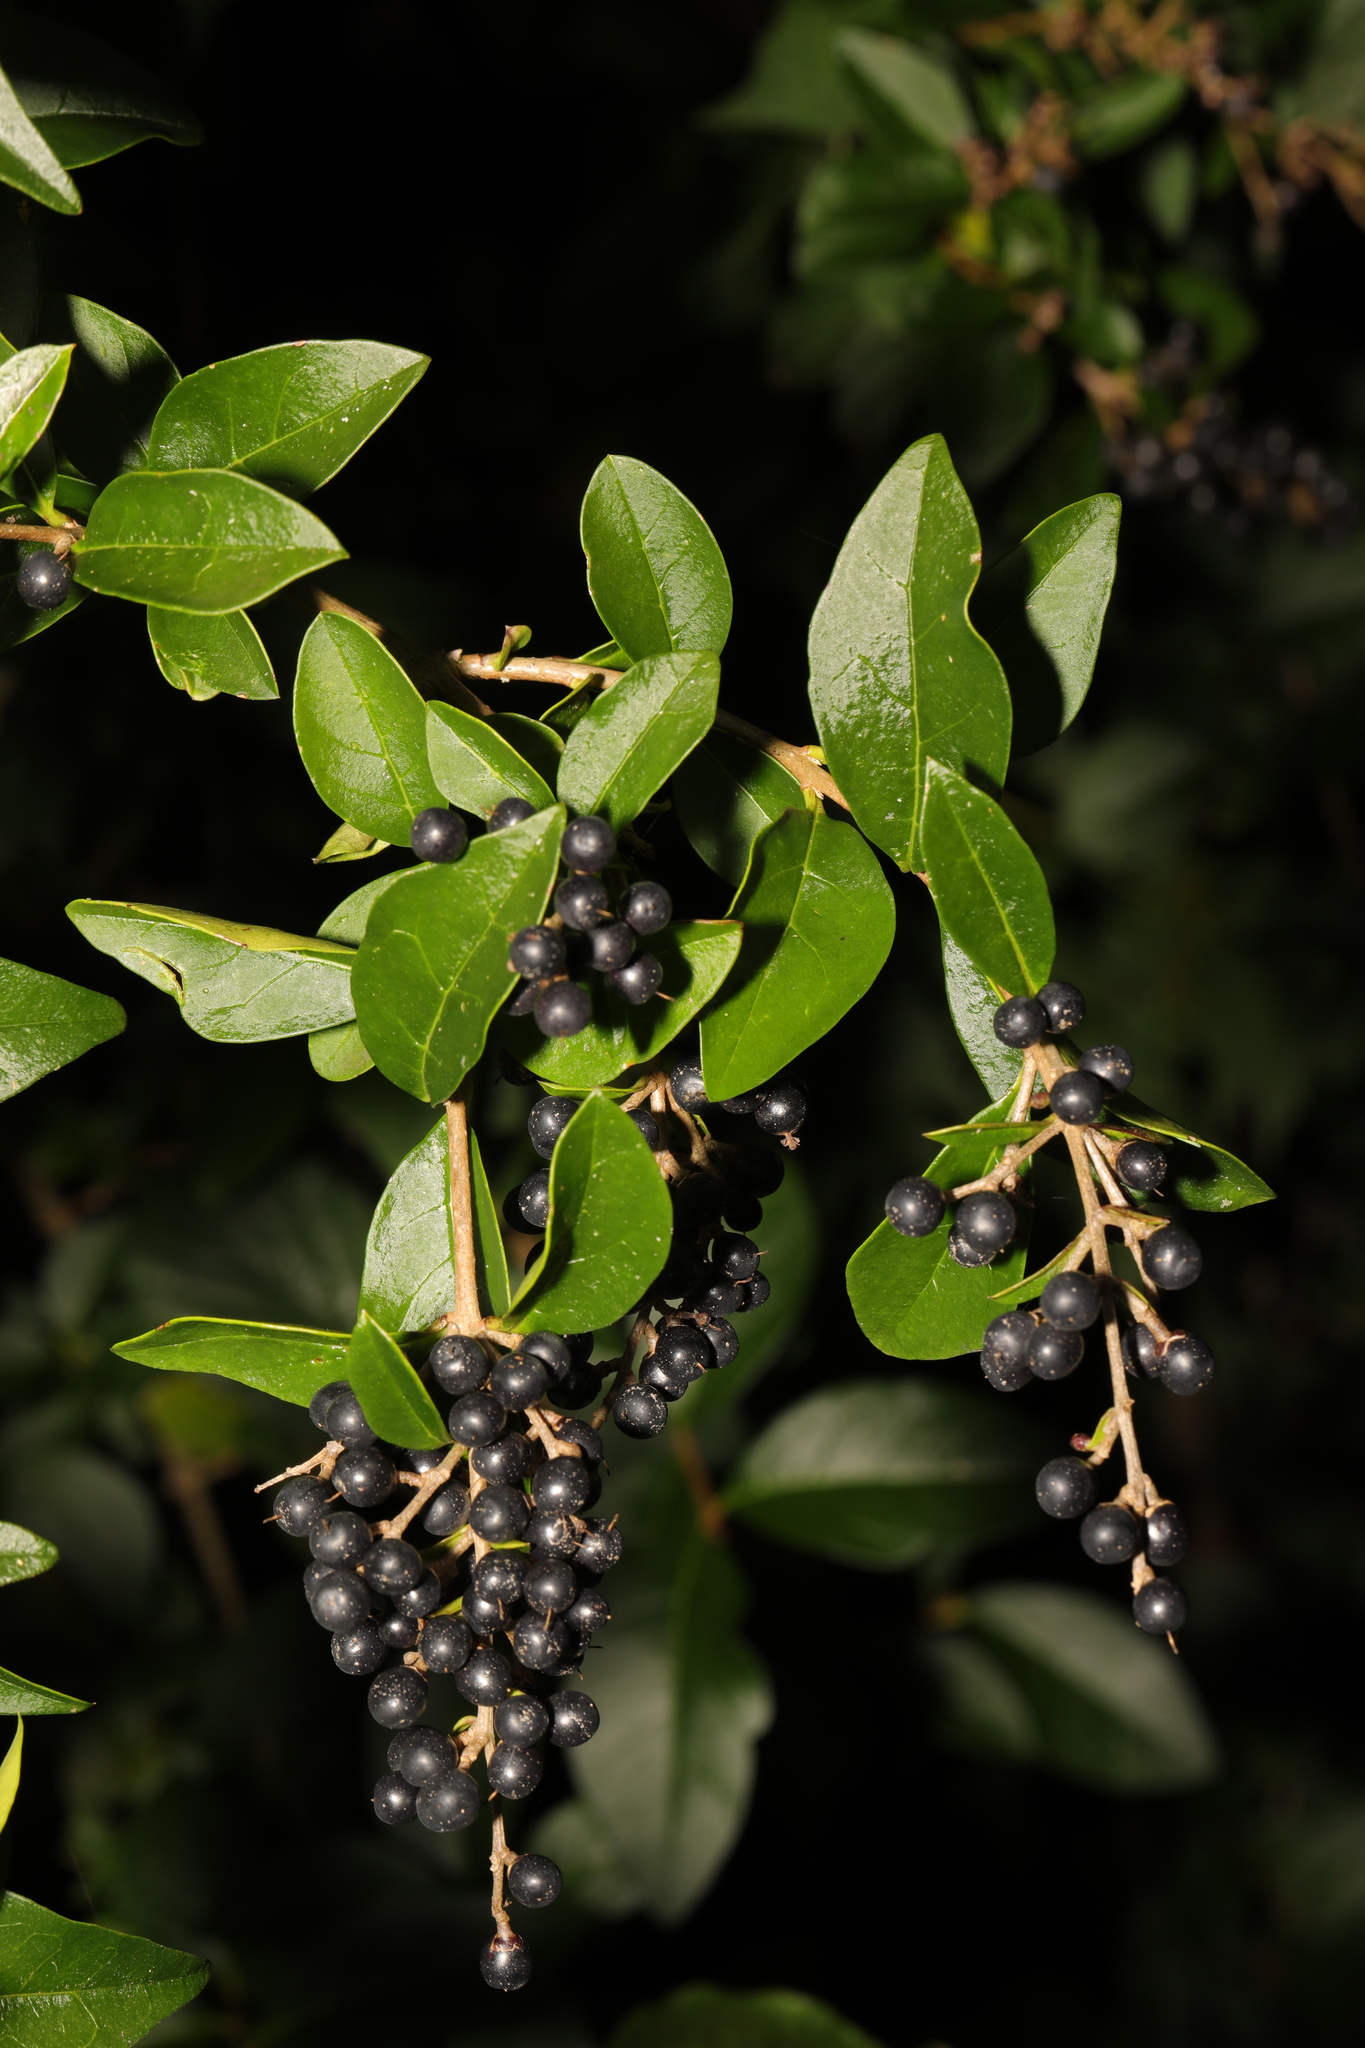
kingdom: Plantae
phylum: Tracheophyta
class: Magnoliopsida
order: Lamiales
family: Oleaceae
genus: Ligustrum
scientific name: Ligustrum ovalifolium
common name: California privet
